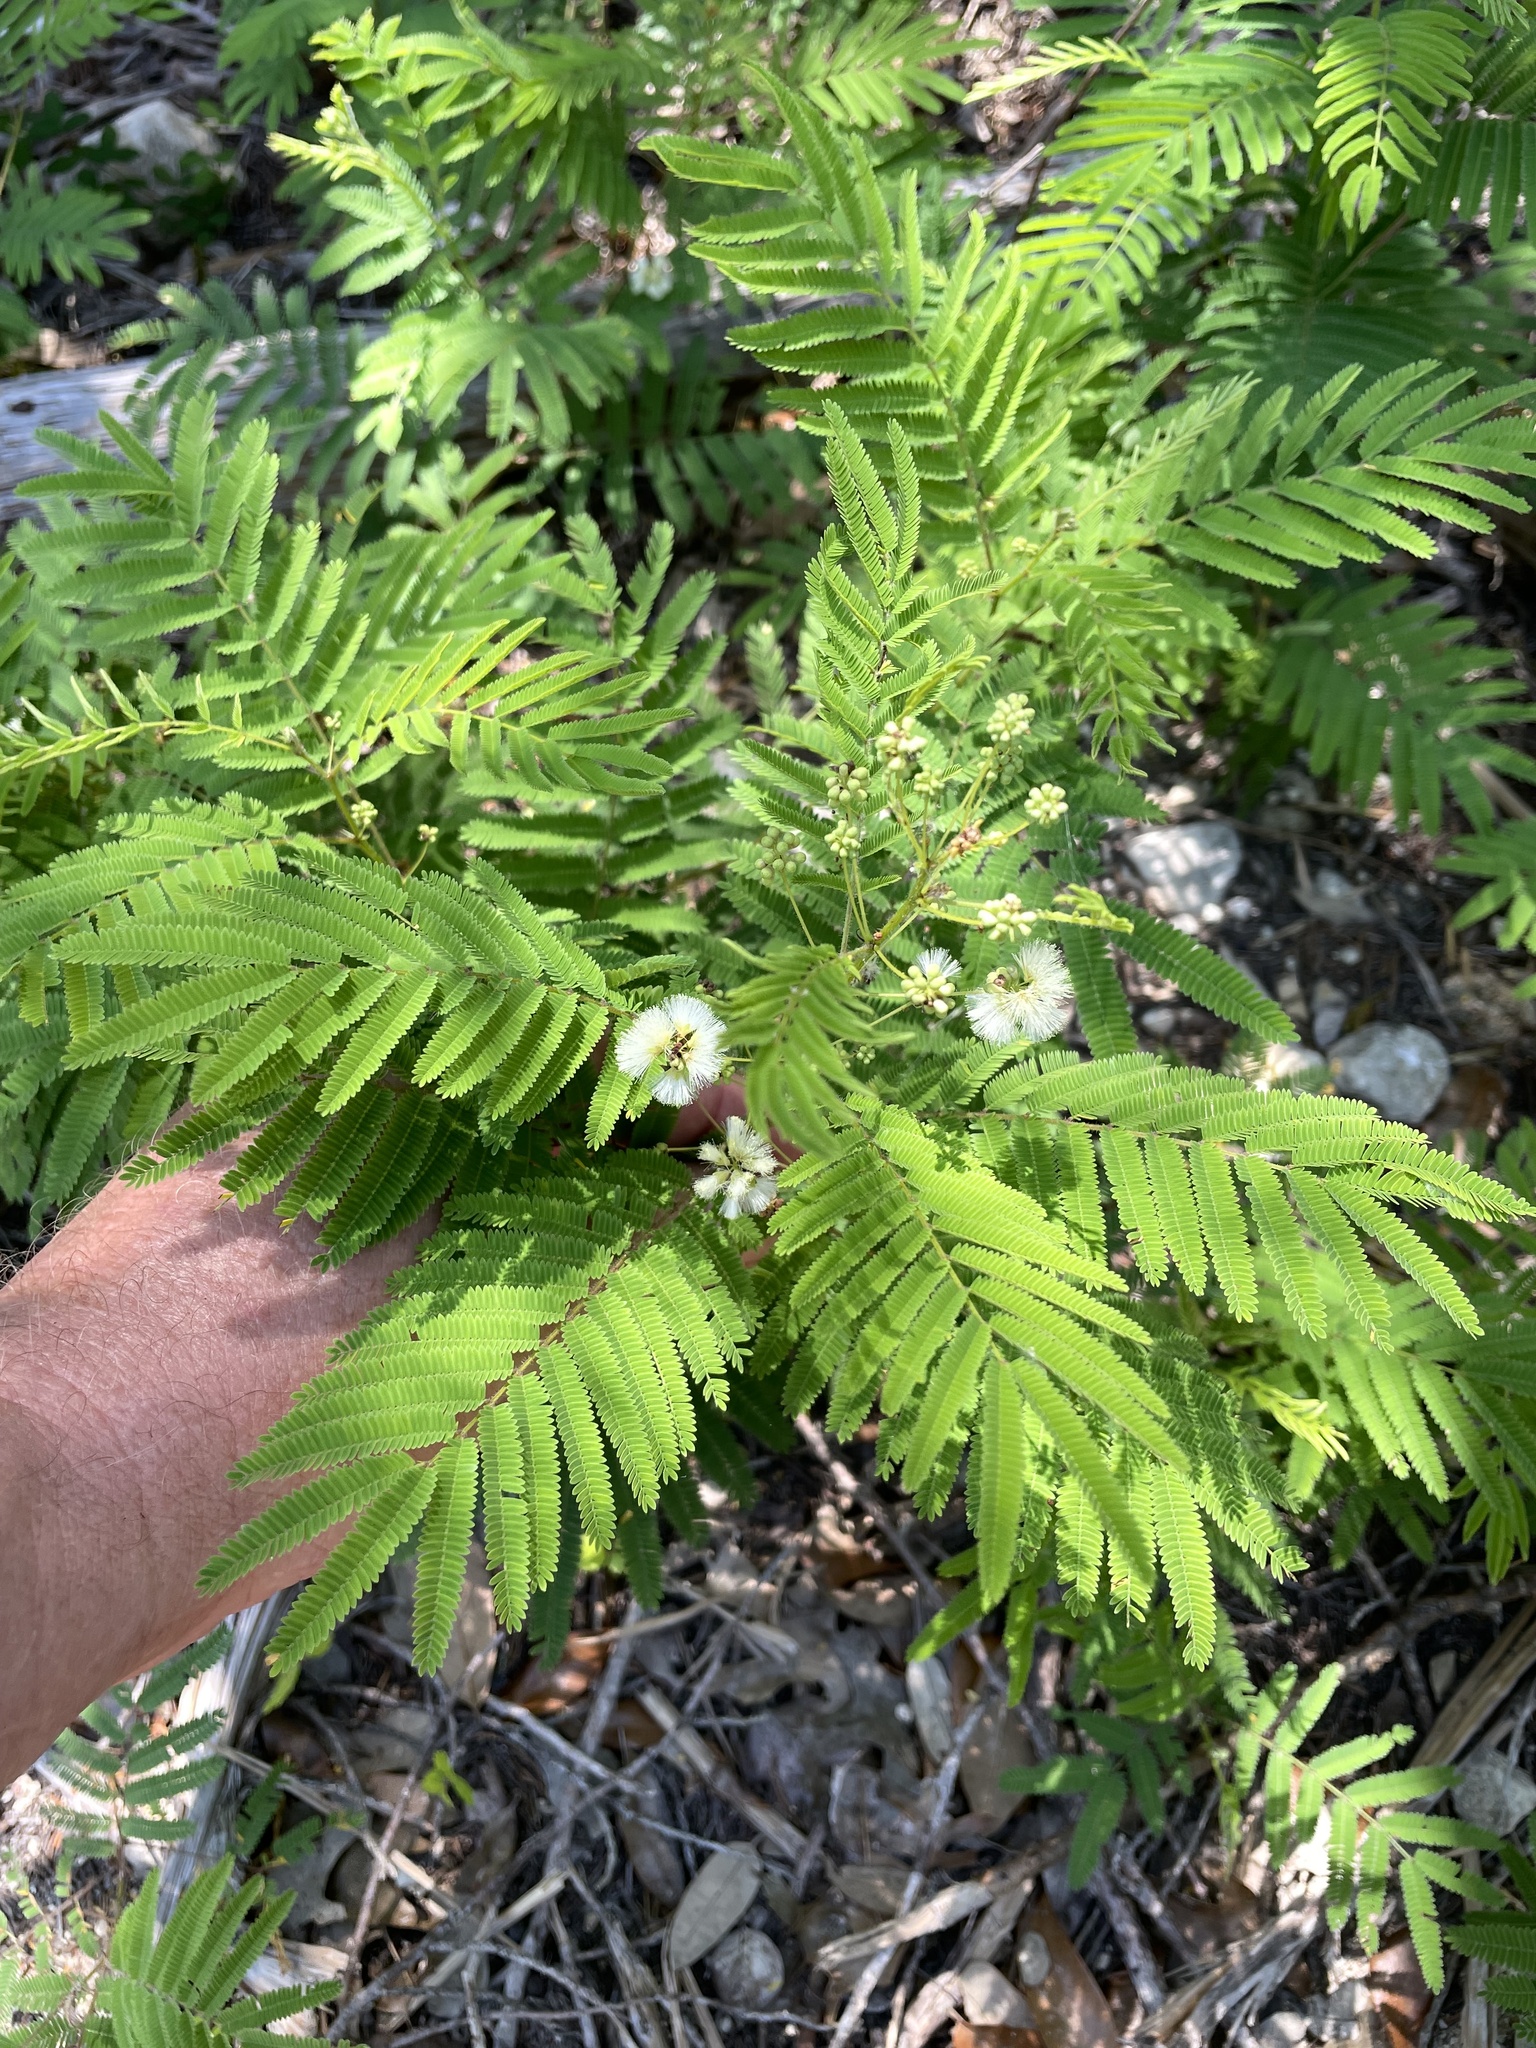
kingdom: Plantae
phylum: Tracheophyta
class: Magnoliopsida
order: Fabales
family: Fabaceae
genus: Acaciella
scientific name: Acaciella angustissima
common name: Prairie acacia
